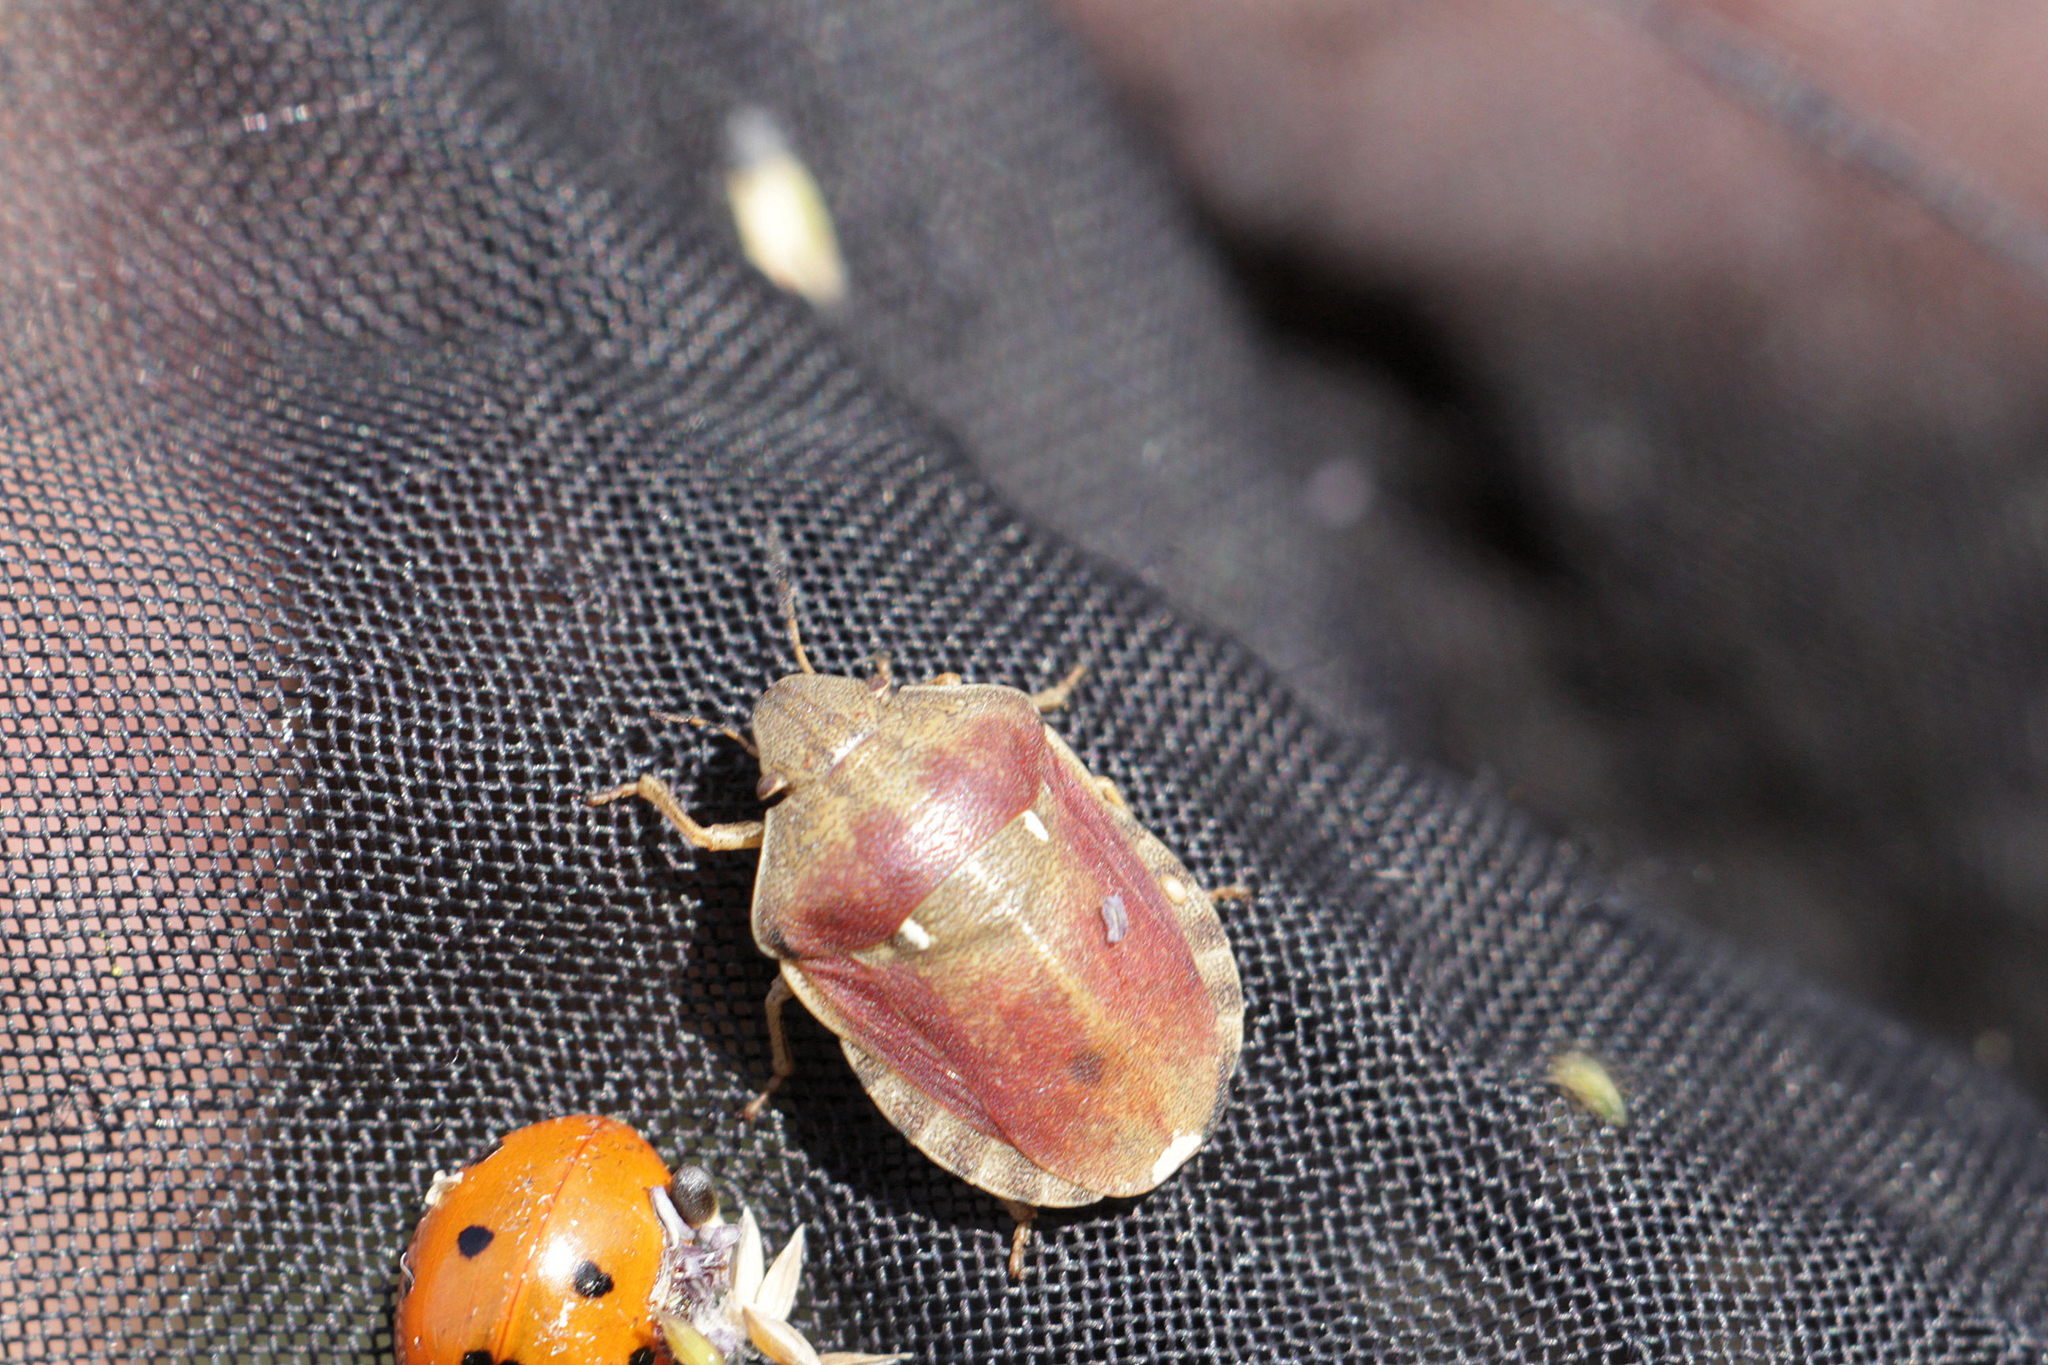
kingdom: Animalia
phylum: Arthropoda
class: Insecta
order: Hemiptera
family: Scutelleridae
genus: Eurygaster
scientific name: Eurygaster maura
